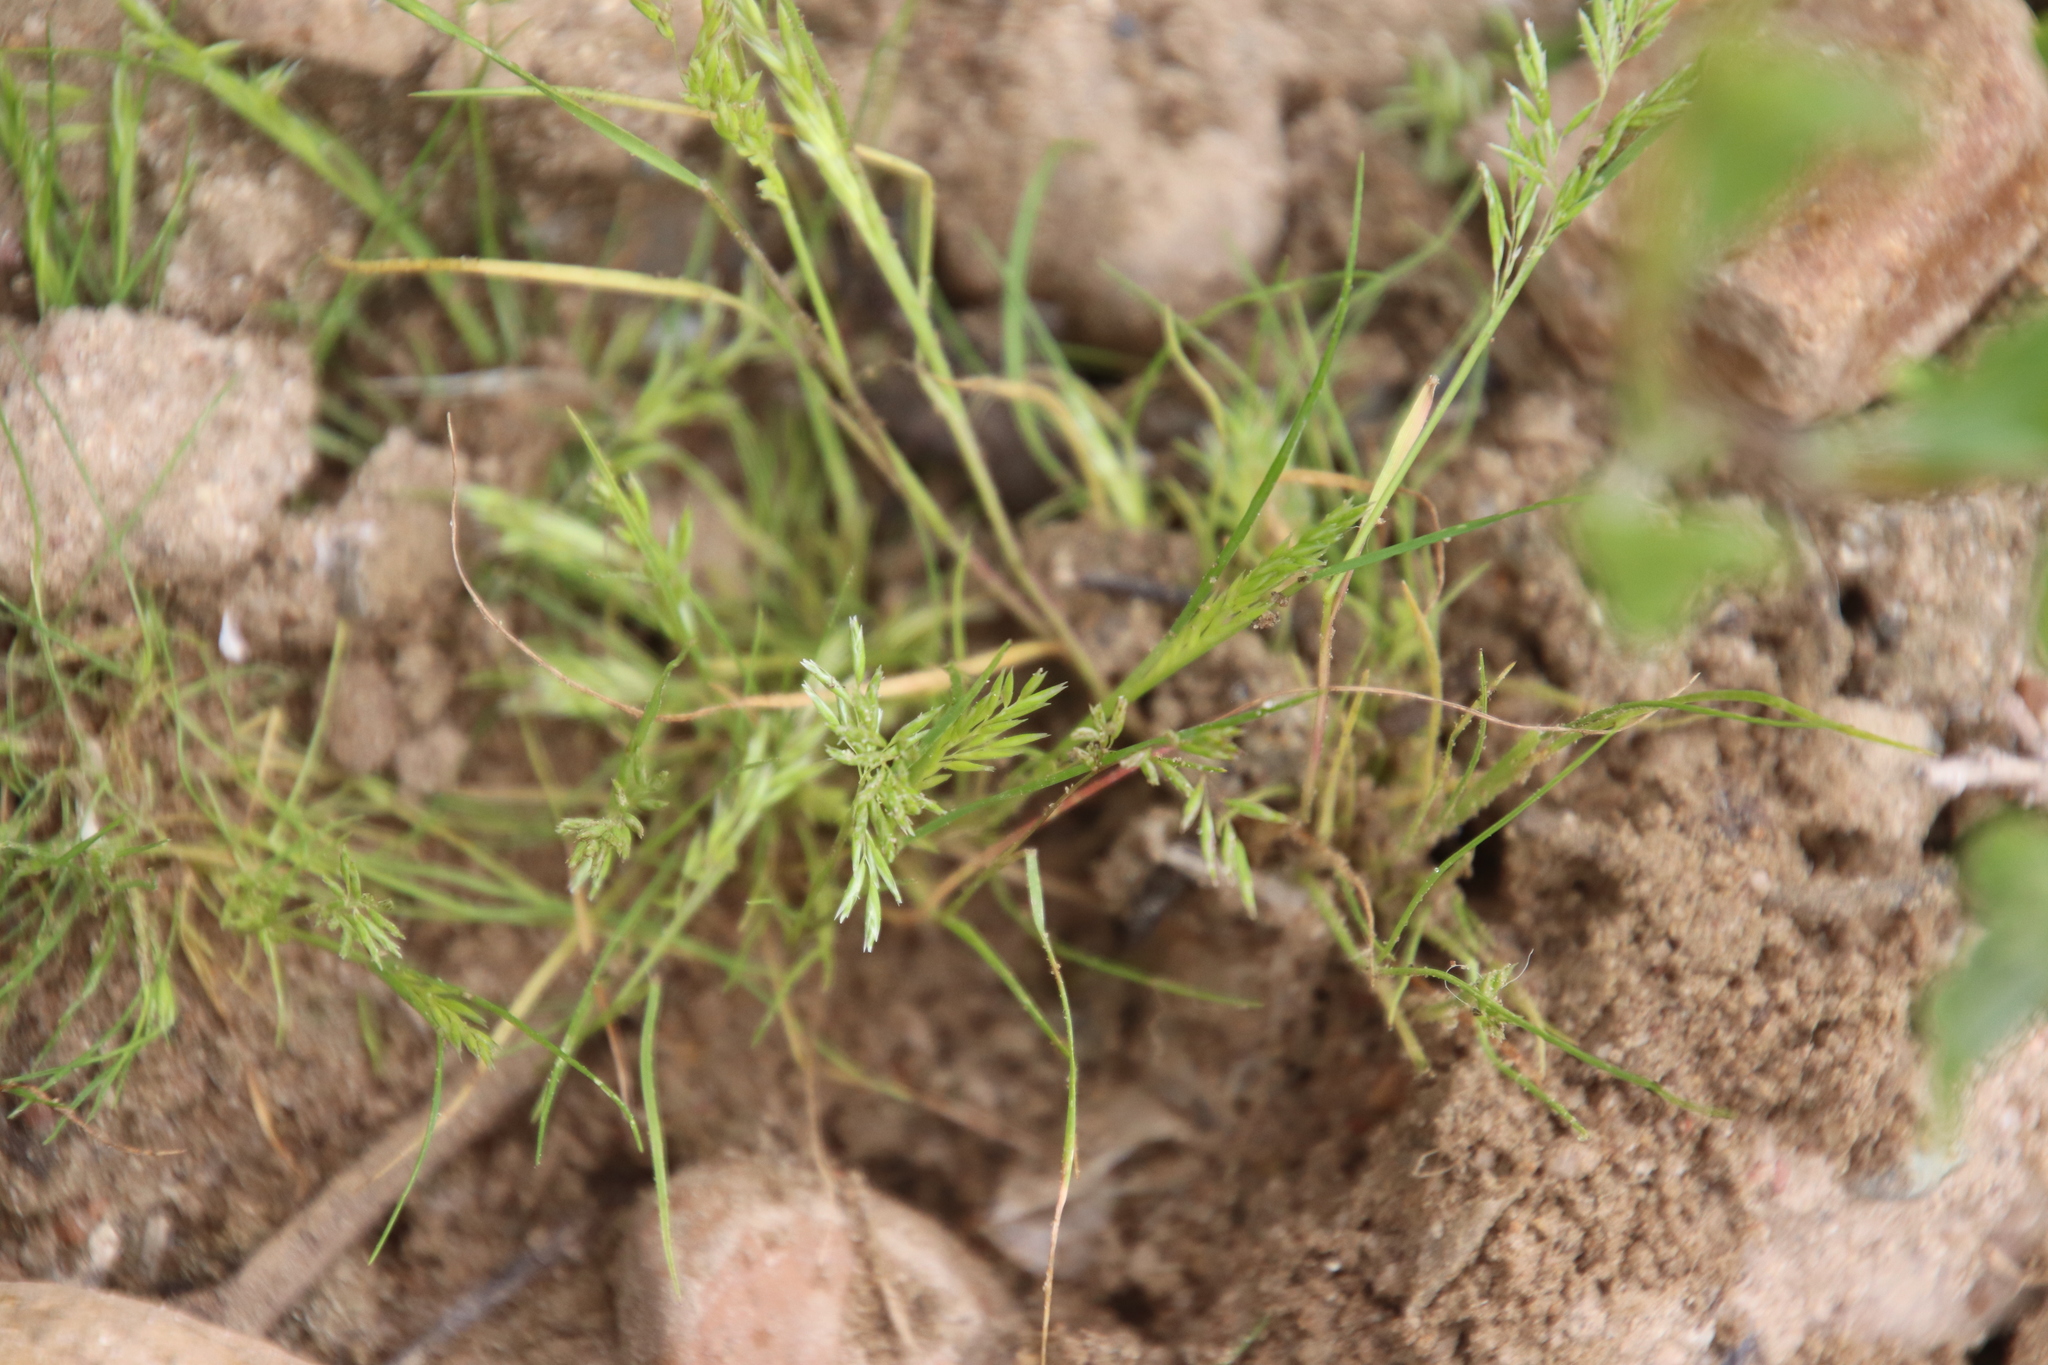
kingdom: Plantae
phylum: Tracheophyta
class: Liliopsida
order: Poales
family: Poaceae
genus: Schismus
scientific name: Schismus barbatus
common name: Kelch-grass
